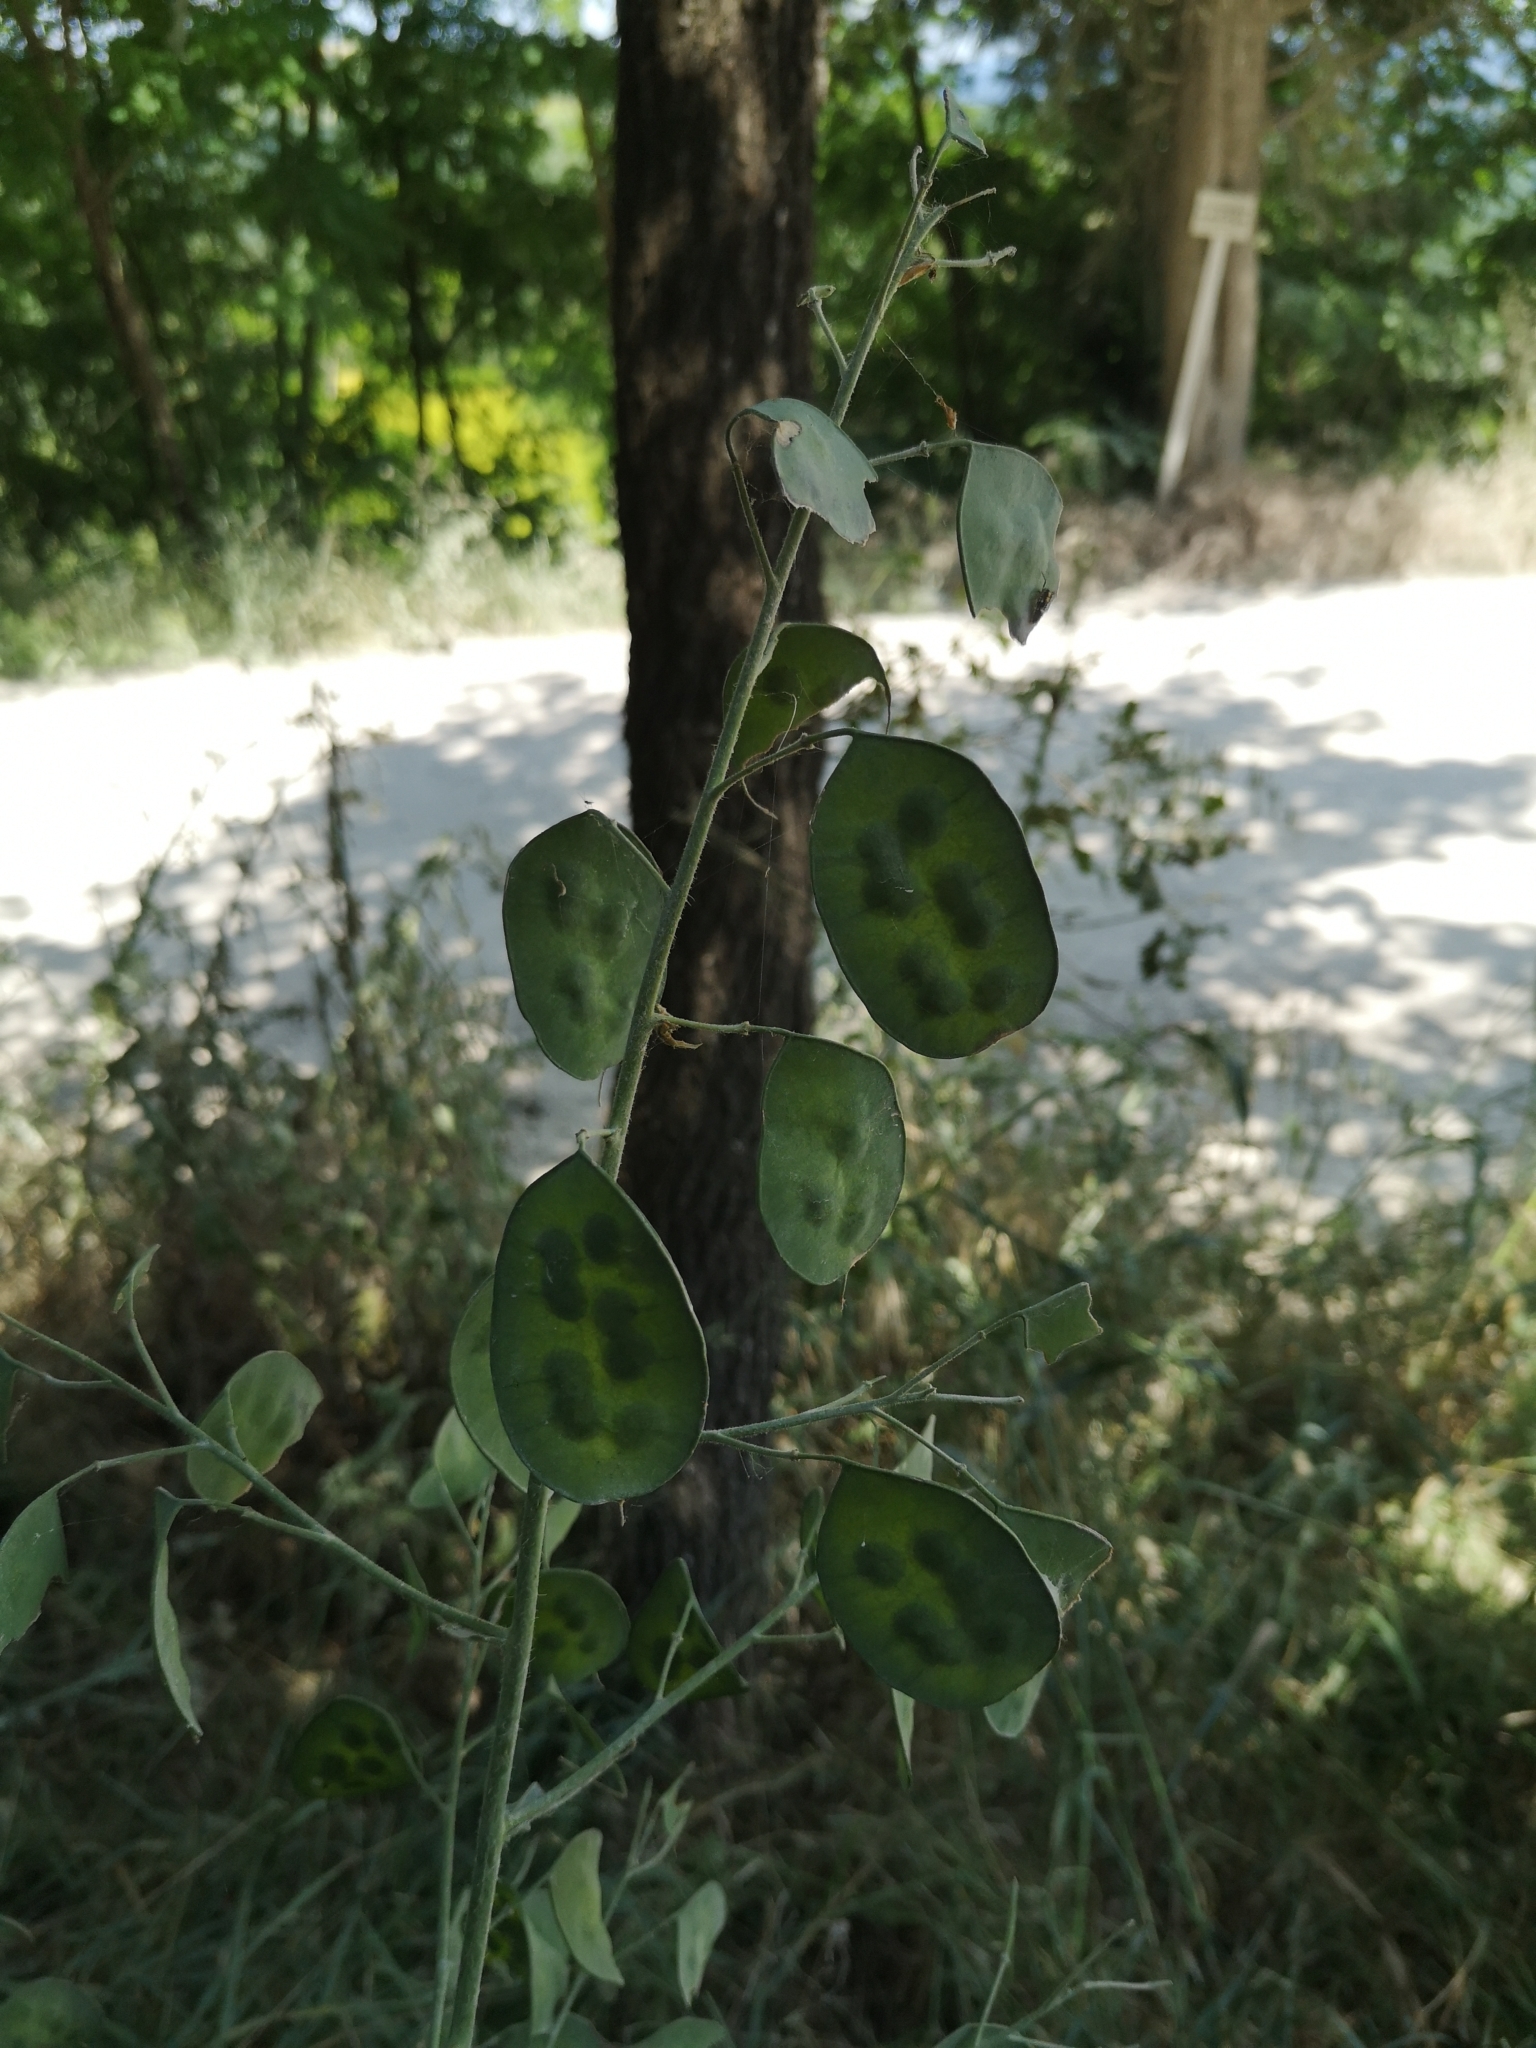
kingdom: Plantae
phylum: Tracheophyta
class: Magnoliopsida
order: Brassicales
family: Brassicaceae
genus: Lunaria
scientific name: Lunaria annua
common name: Honesty
